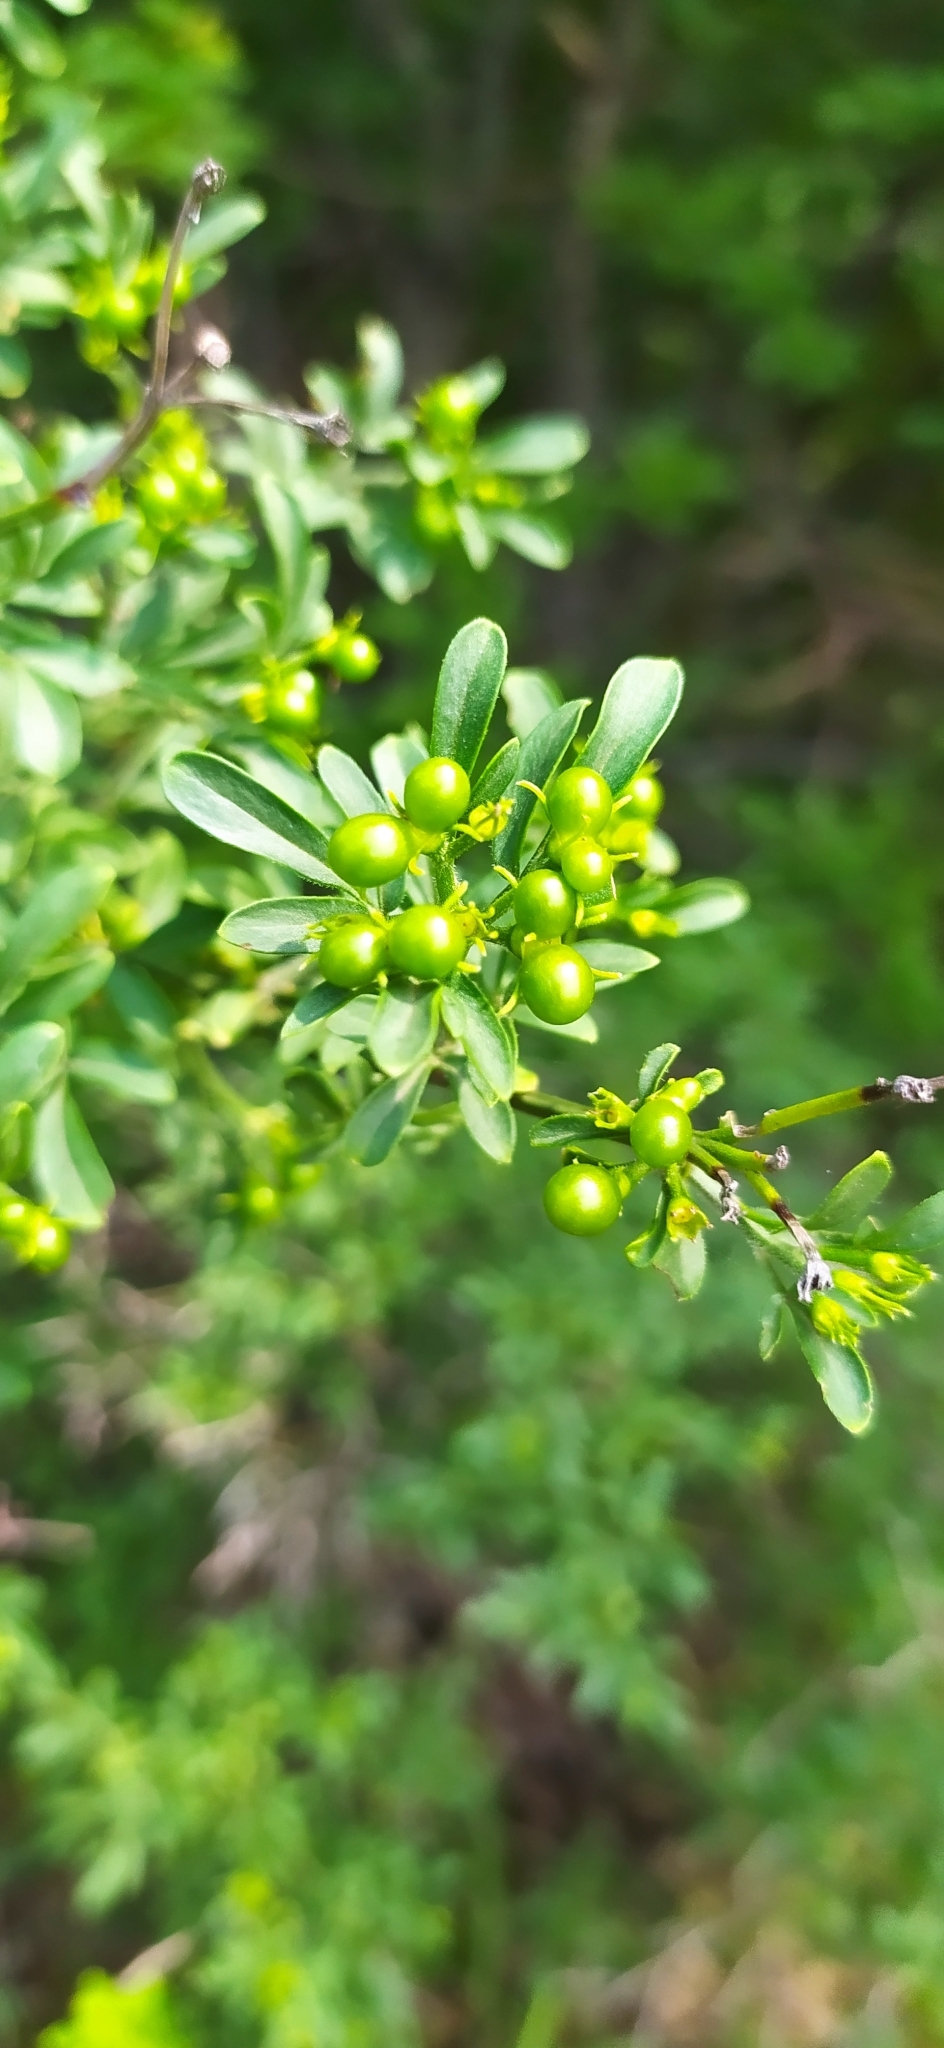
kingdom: Plantae
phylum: Tracheophyta
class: Magnoliopsida
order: Lamiales
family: Oleaceae
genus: Chrysojasminum
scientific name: Chrysojasminum fruticans
